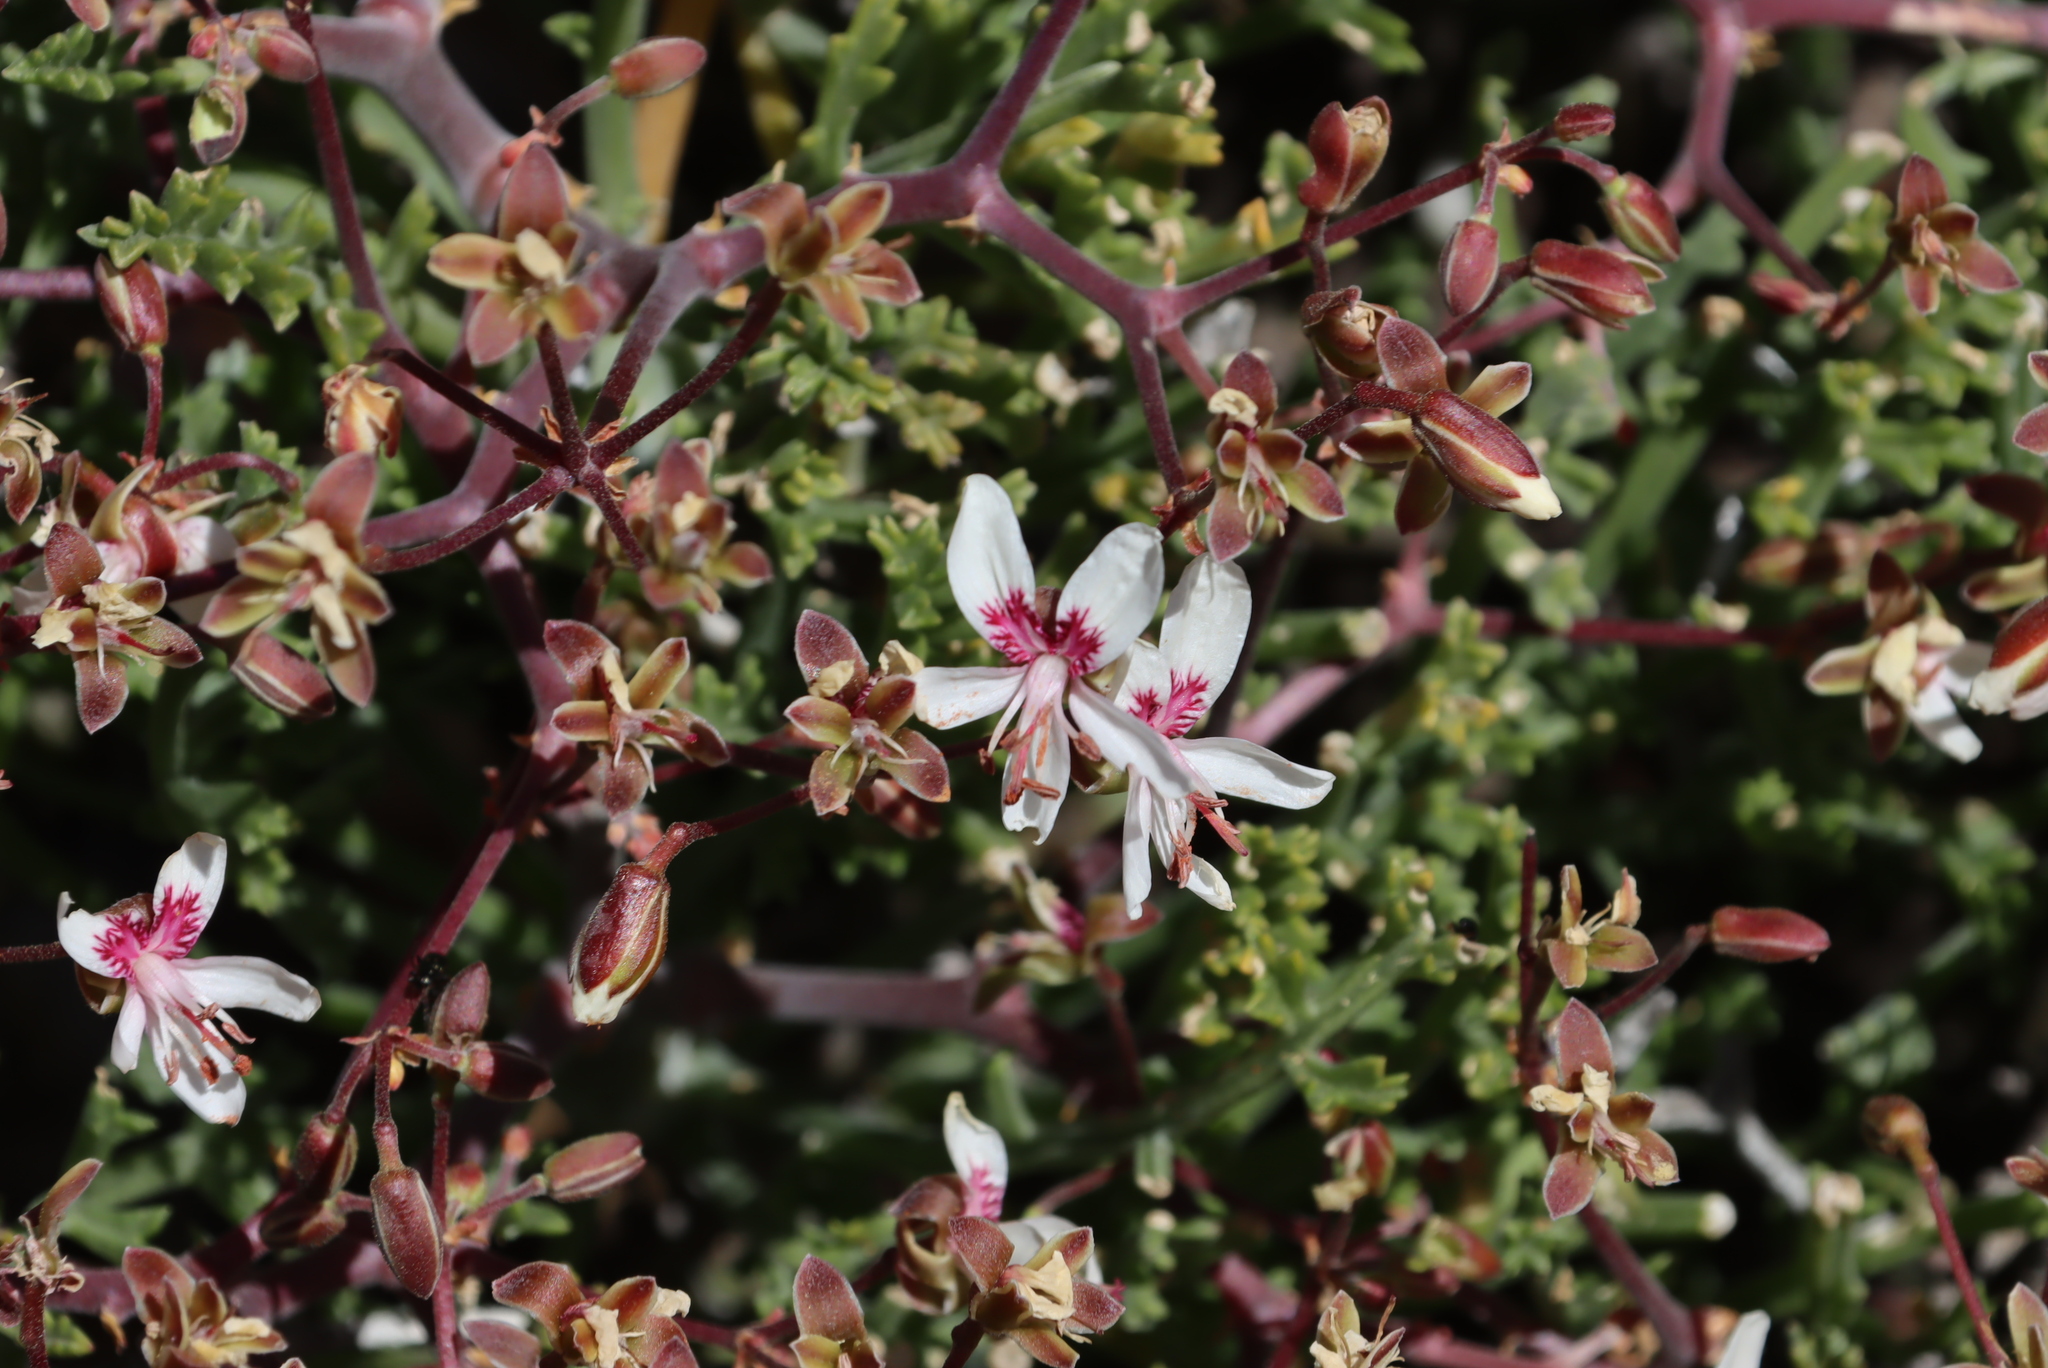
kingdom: Plantae
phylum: Tracheophyta
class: Magnoliopsida
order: Geraniales
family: Geraniaceae
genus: Pelargonium
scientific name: Pelargonium crithmifolium
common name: Samphire-leaf pelargonium
